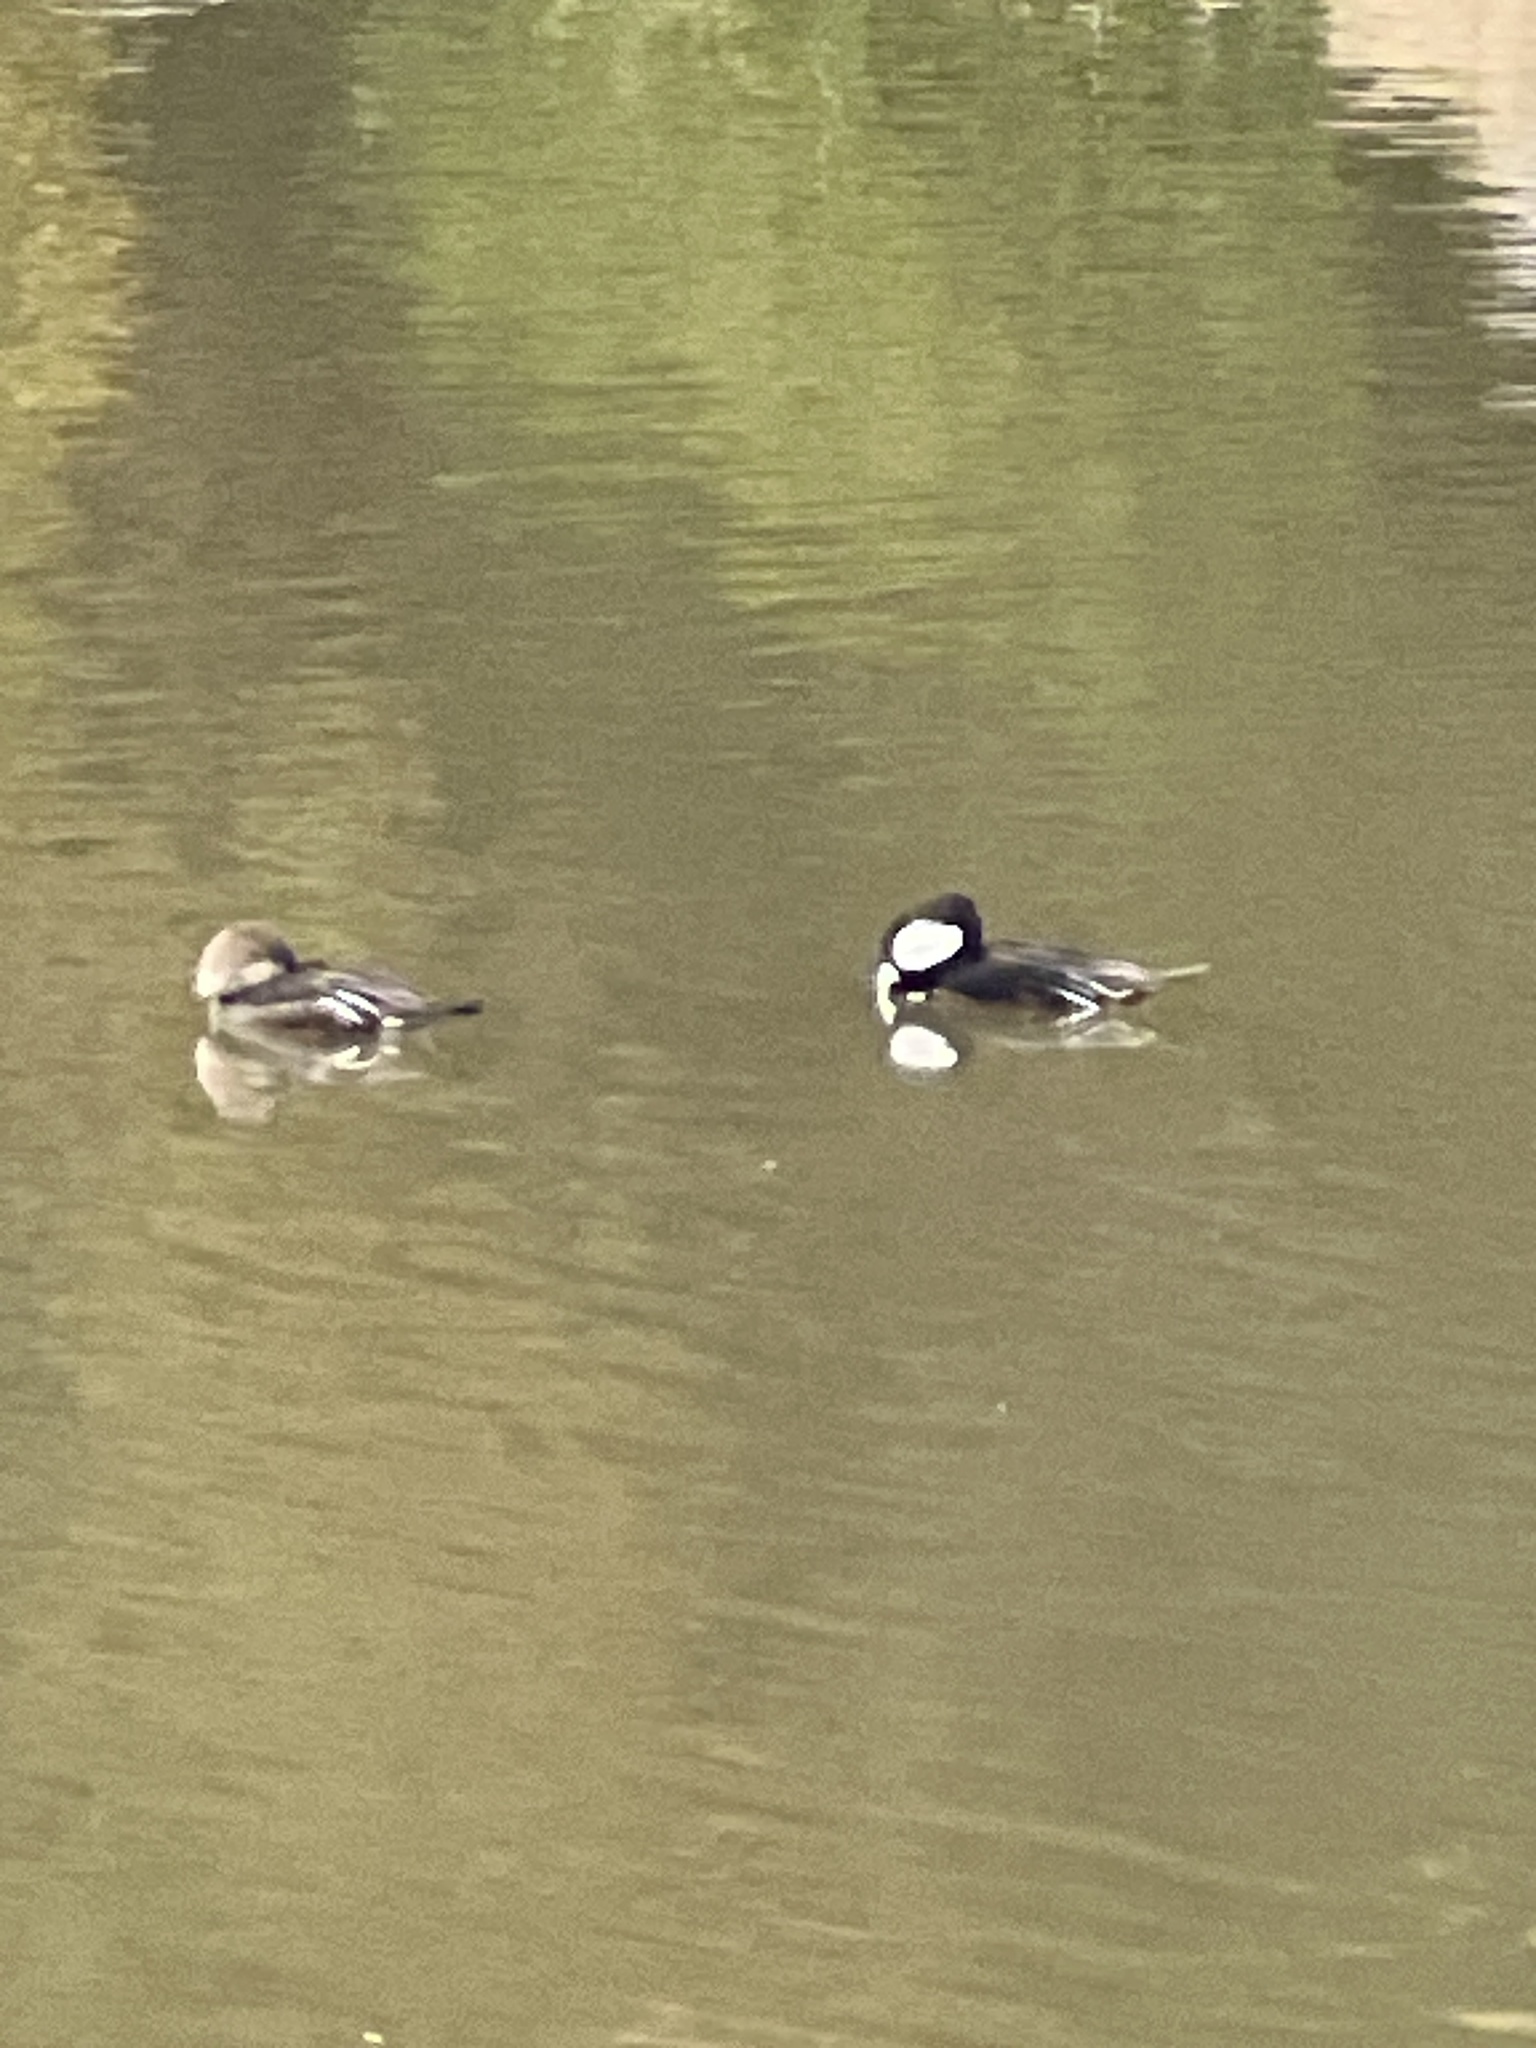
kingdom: Animalia
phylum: Chordata
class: Aves
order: Anseriformes
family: Anatidae
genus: Lophodytes
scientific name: Lophodytes cucullatus
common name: Hooded merganser
